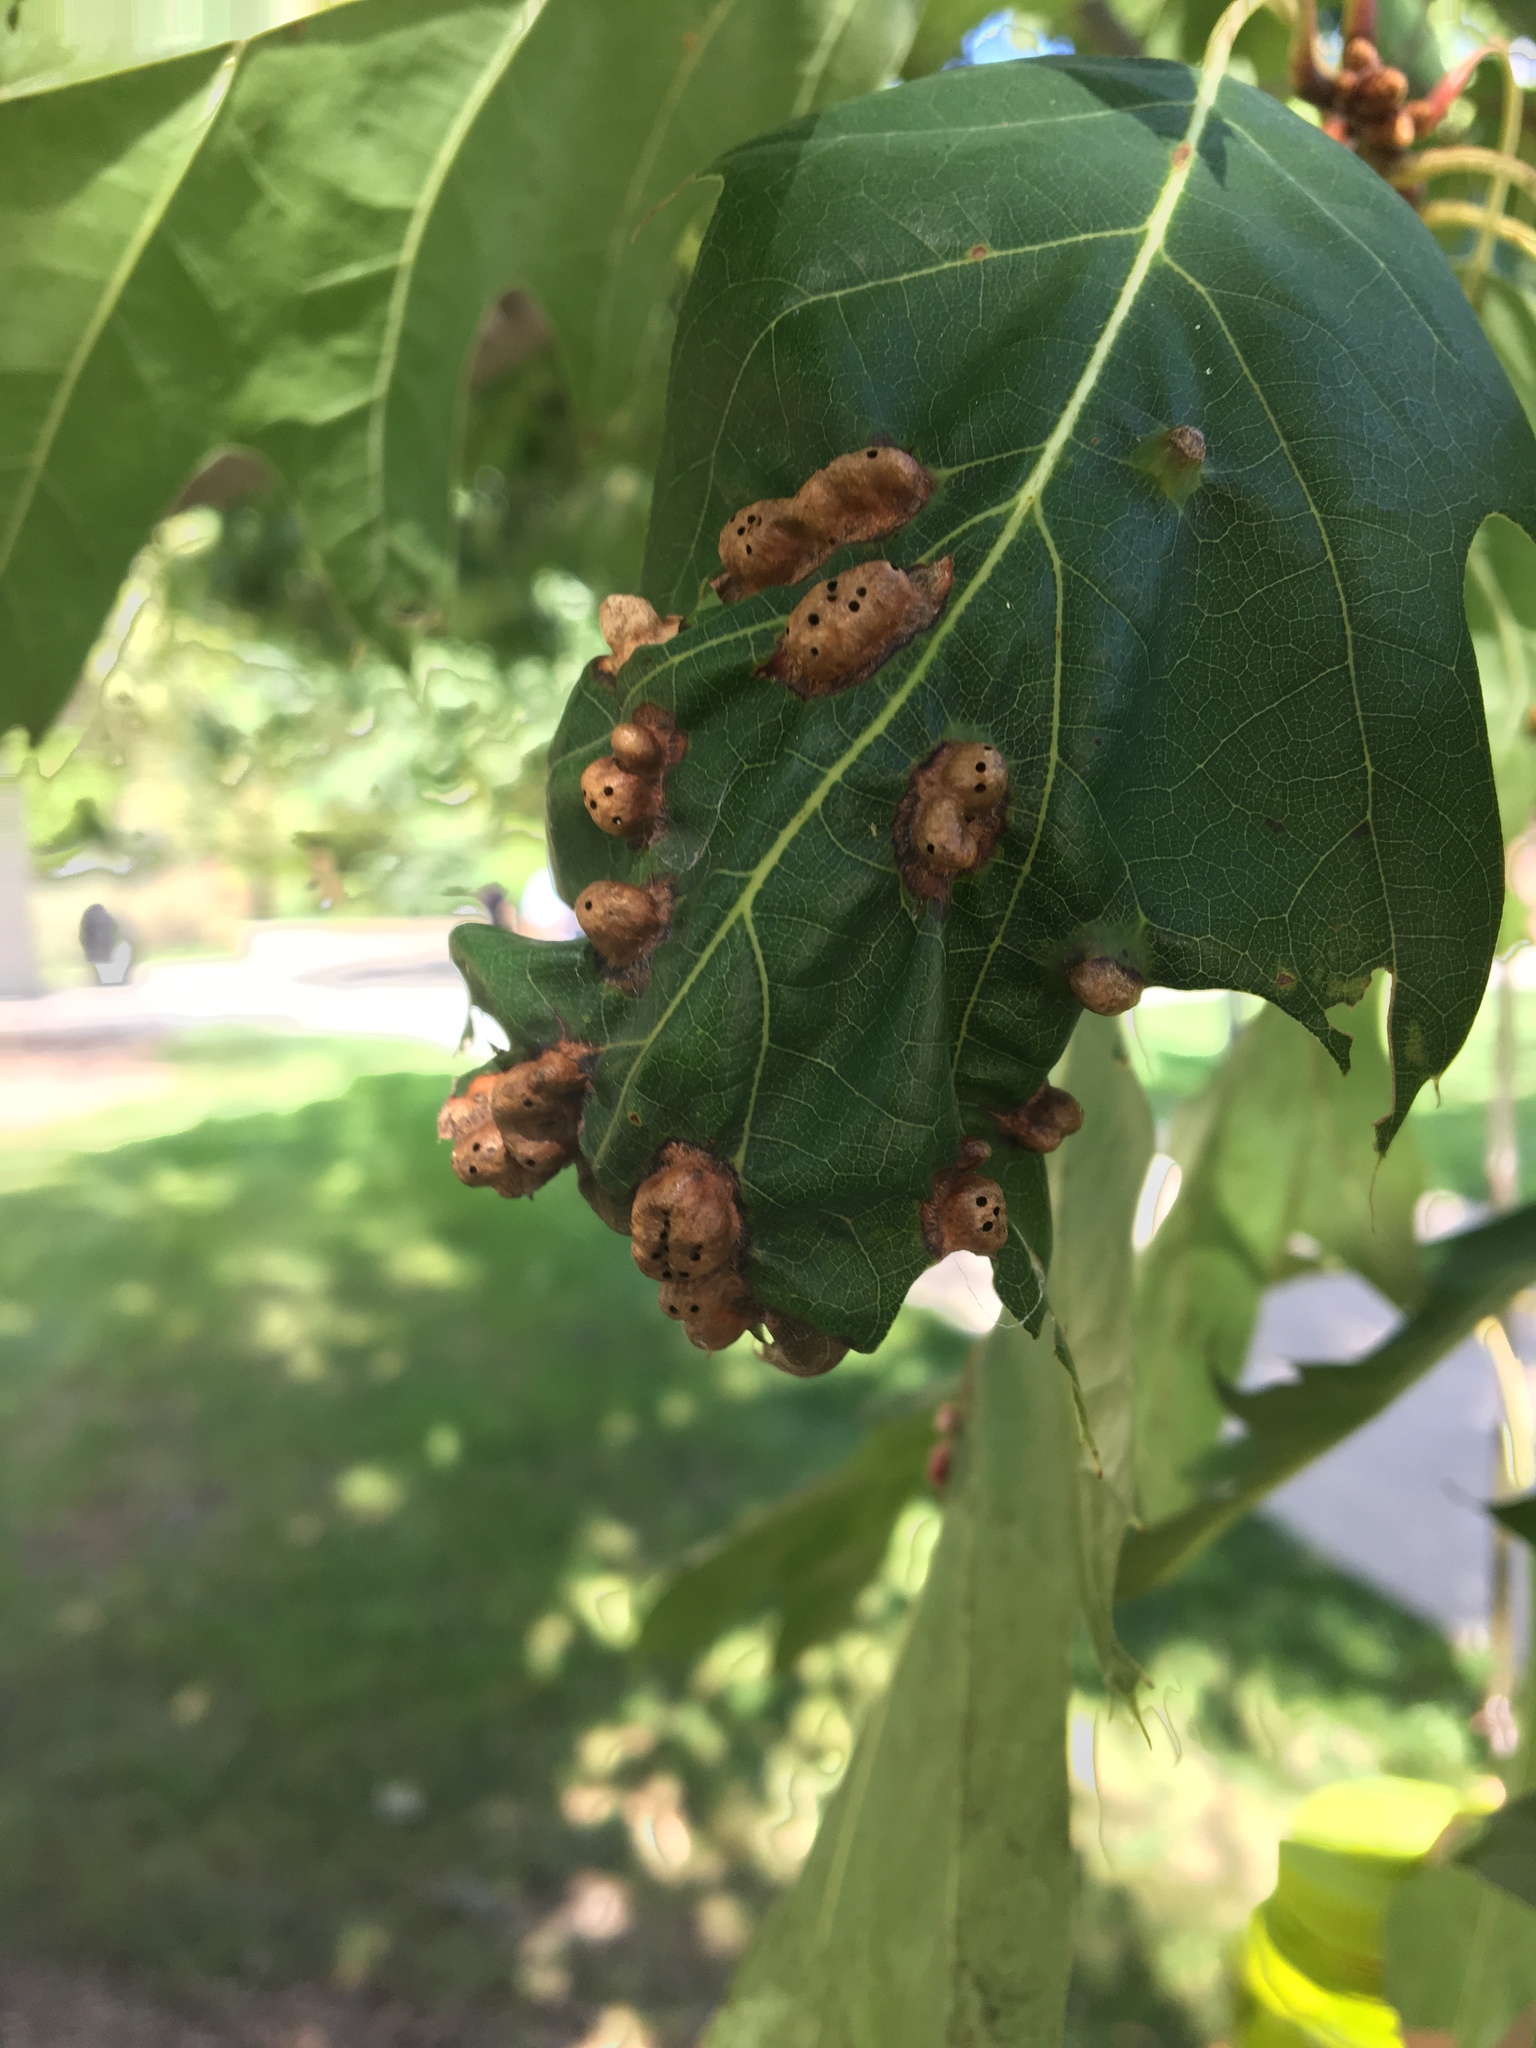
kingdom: Animalia
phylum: Arthropoda
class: Insecta
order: Hymenoptera
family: Cynipidae
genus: Callirhytis
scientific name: Callirhytis
